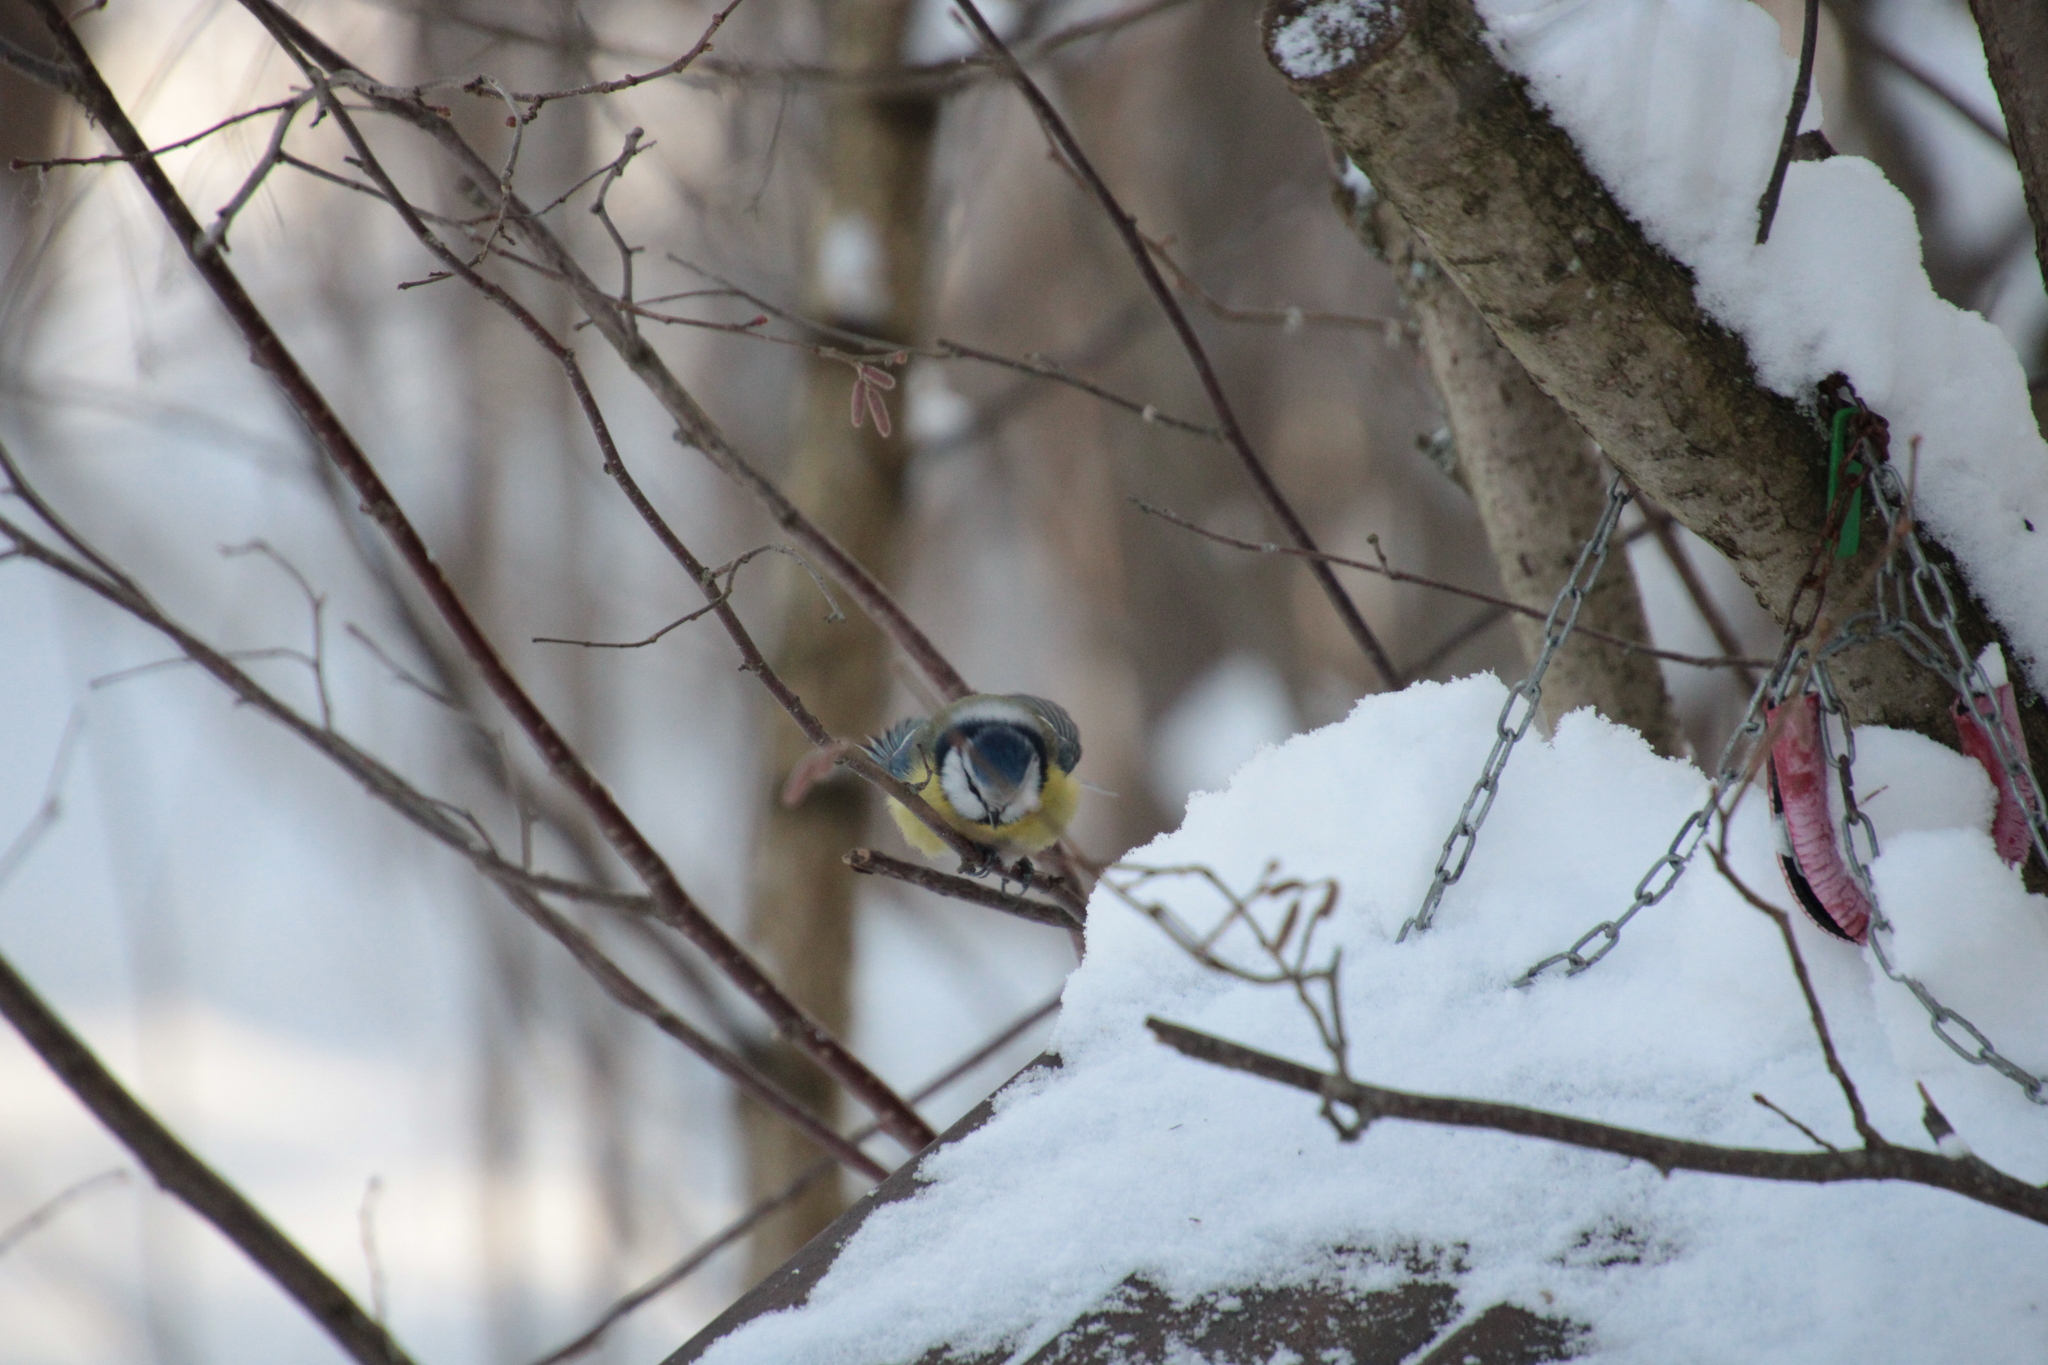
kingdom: Animalia
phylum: Chordata
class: Aves
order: Passeriformes
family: Paridae
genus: Cyanistes
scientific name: Cyanistes caeruleus
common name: Eurasian blue tit
